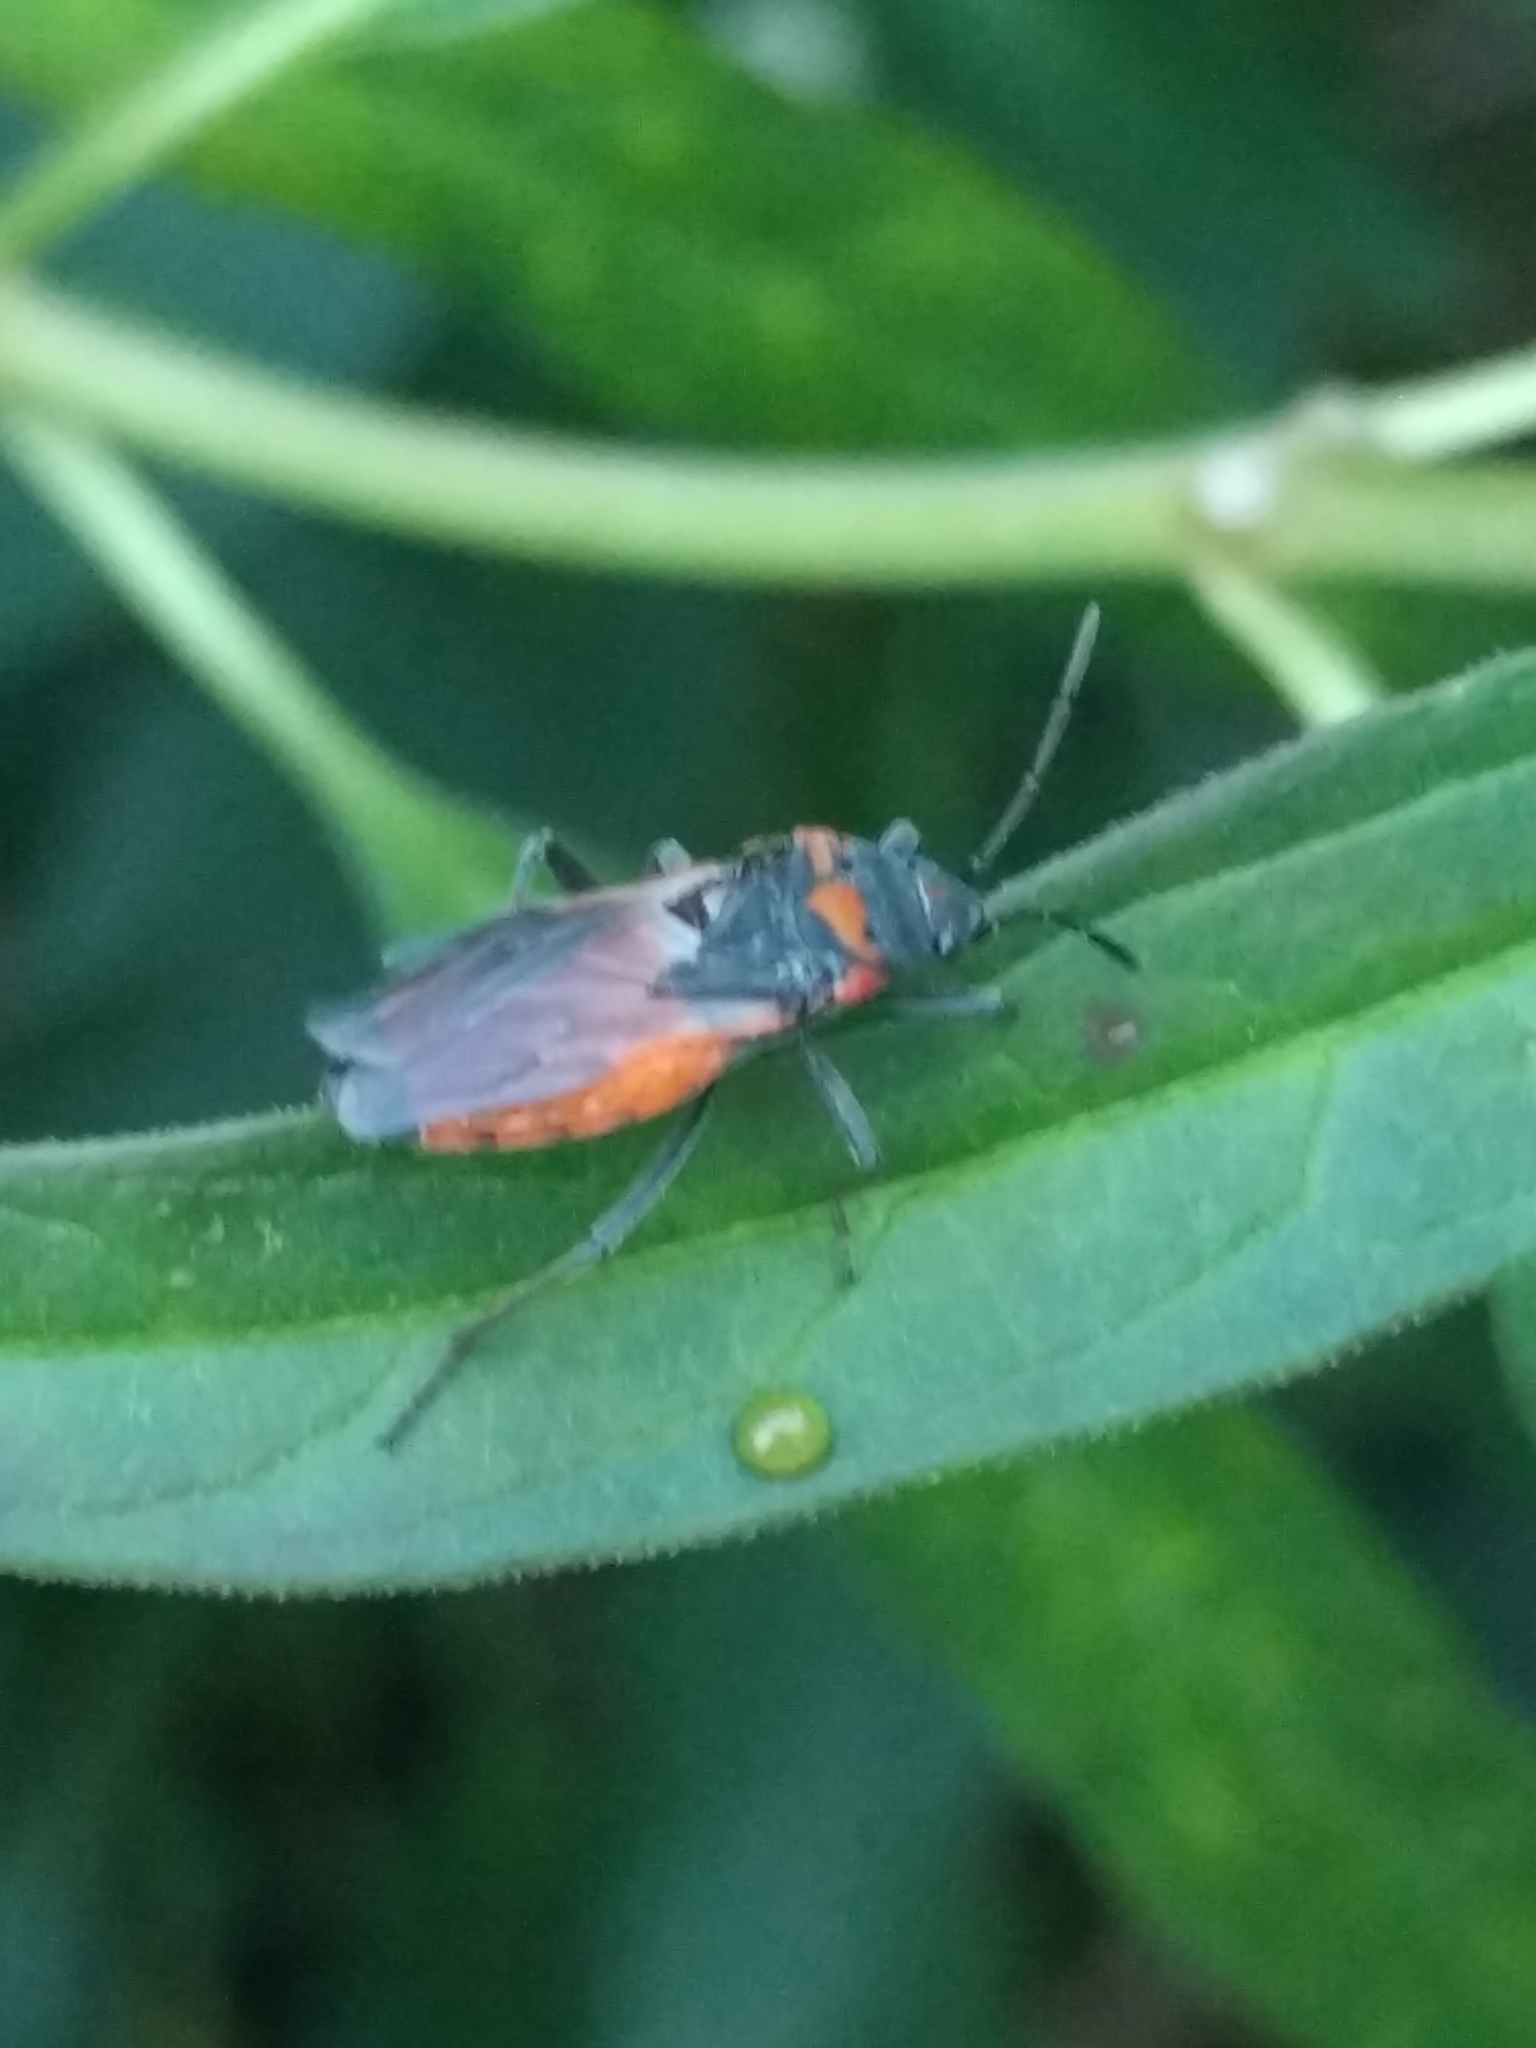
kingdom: Animalia
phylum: Arthropoda
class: Insecta
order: Hemiptera
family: Lygaeidae
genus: Lygaeus
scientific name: Lygaeus kalmii
